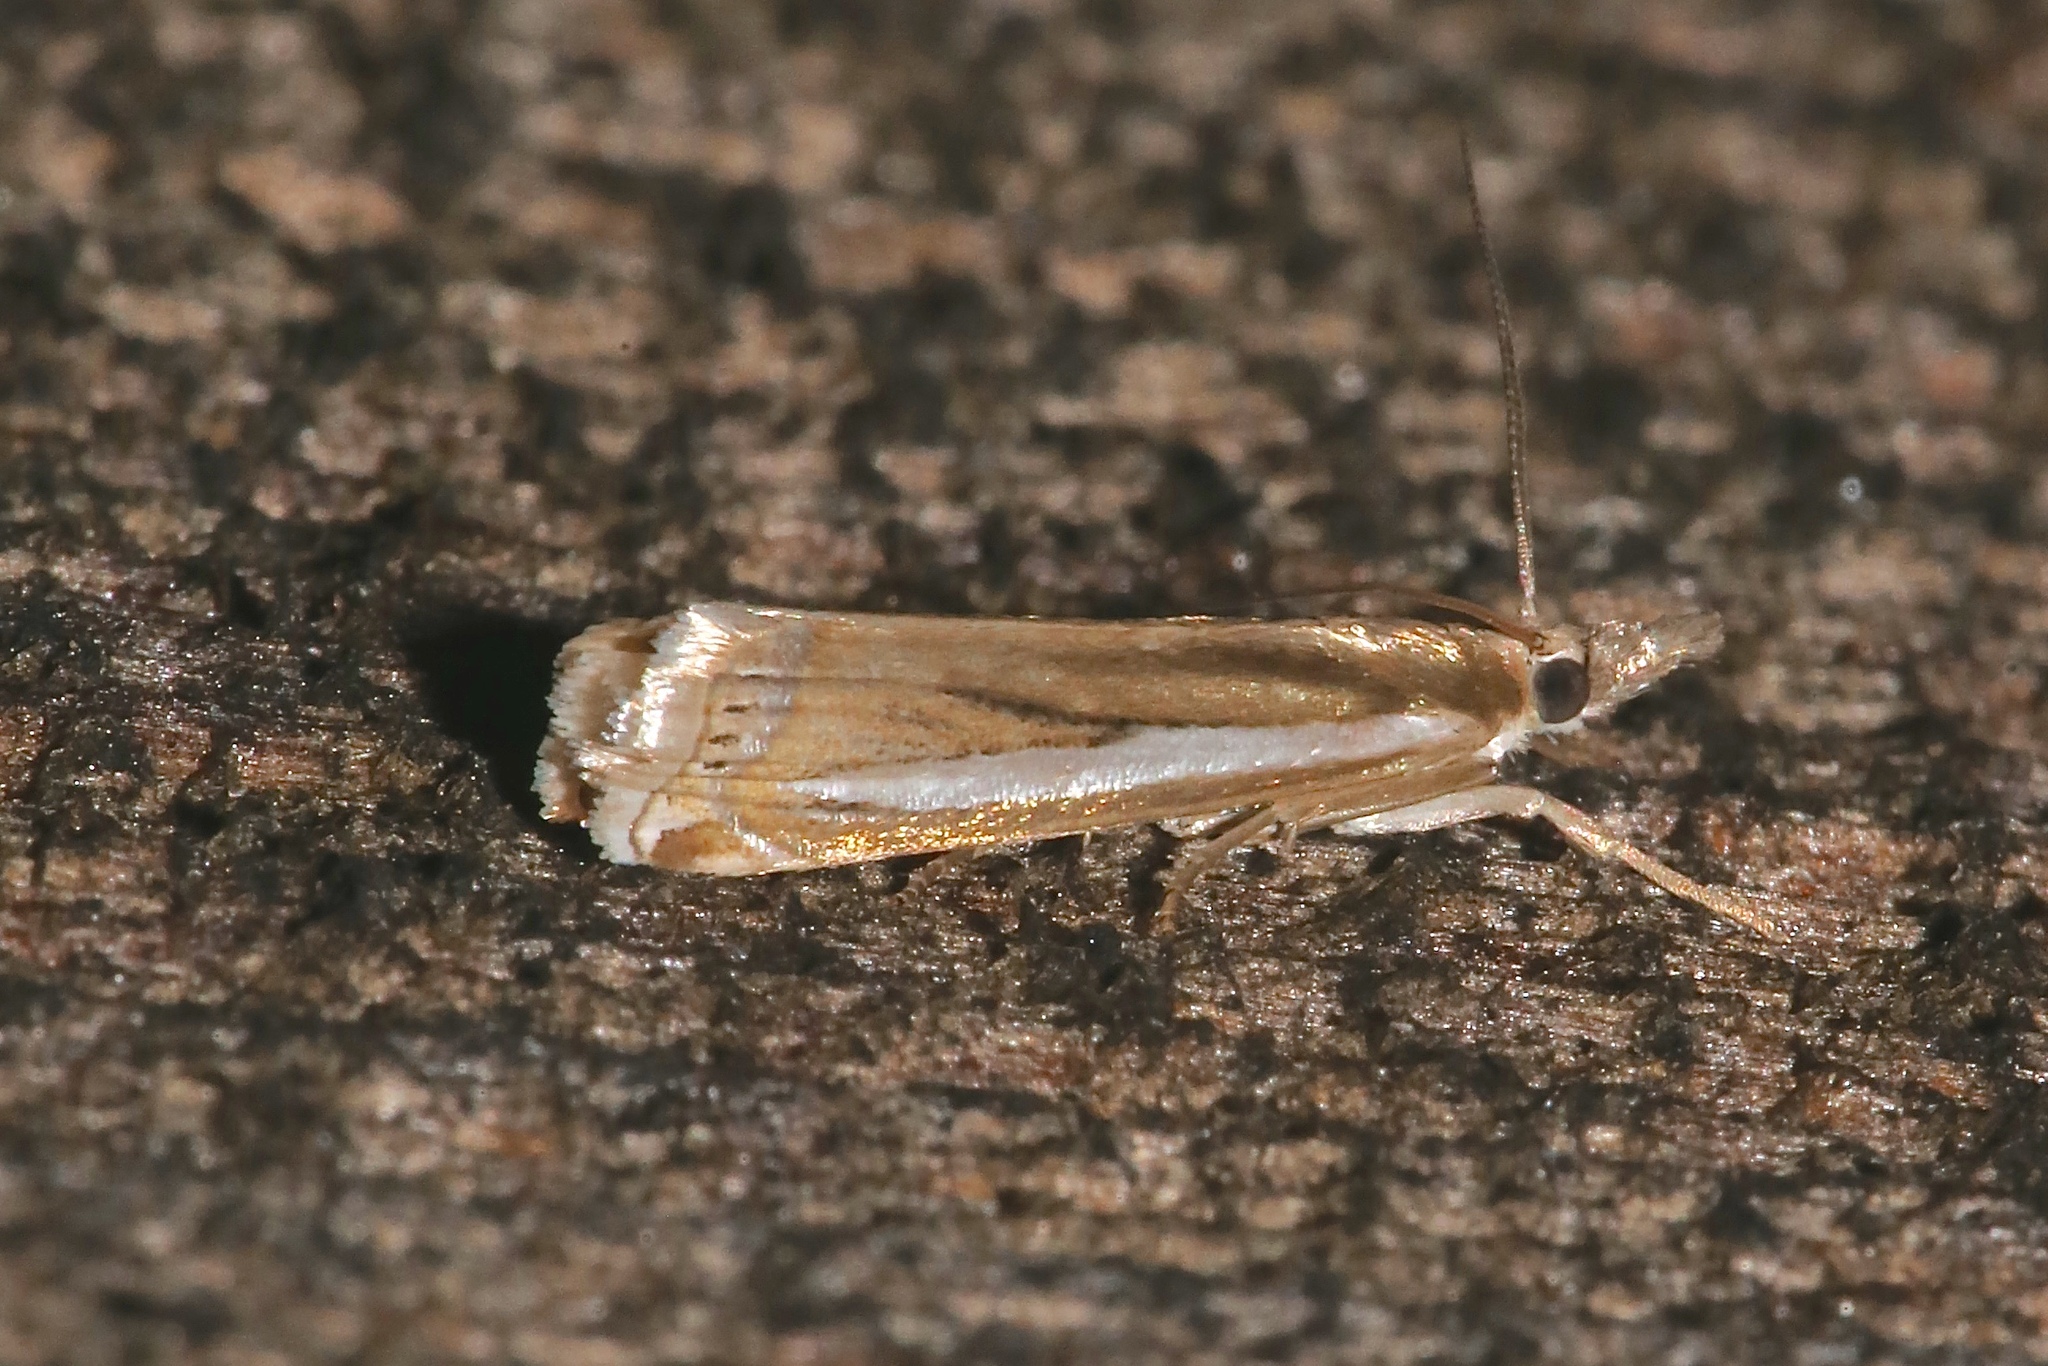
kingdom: Animalia
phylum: Arthropoda
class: Insecta
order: Lepidoptera
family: Crambidae
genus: Crambus
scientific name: Crambus praefectellus
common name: Common grass-veneer
